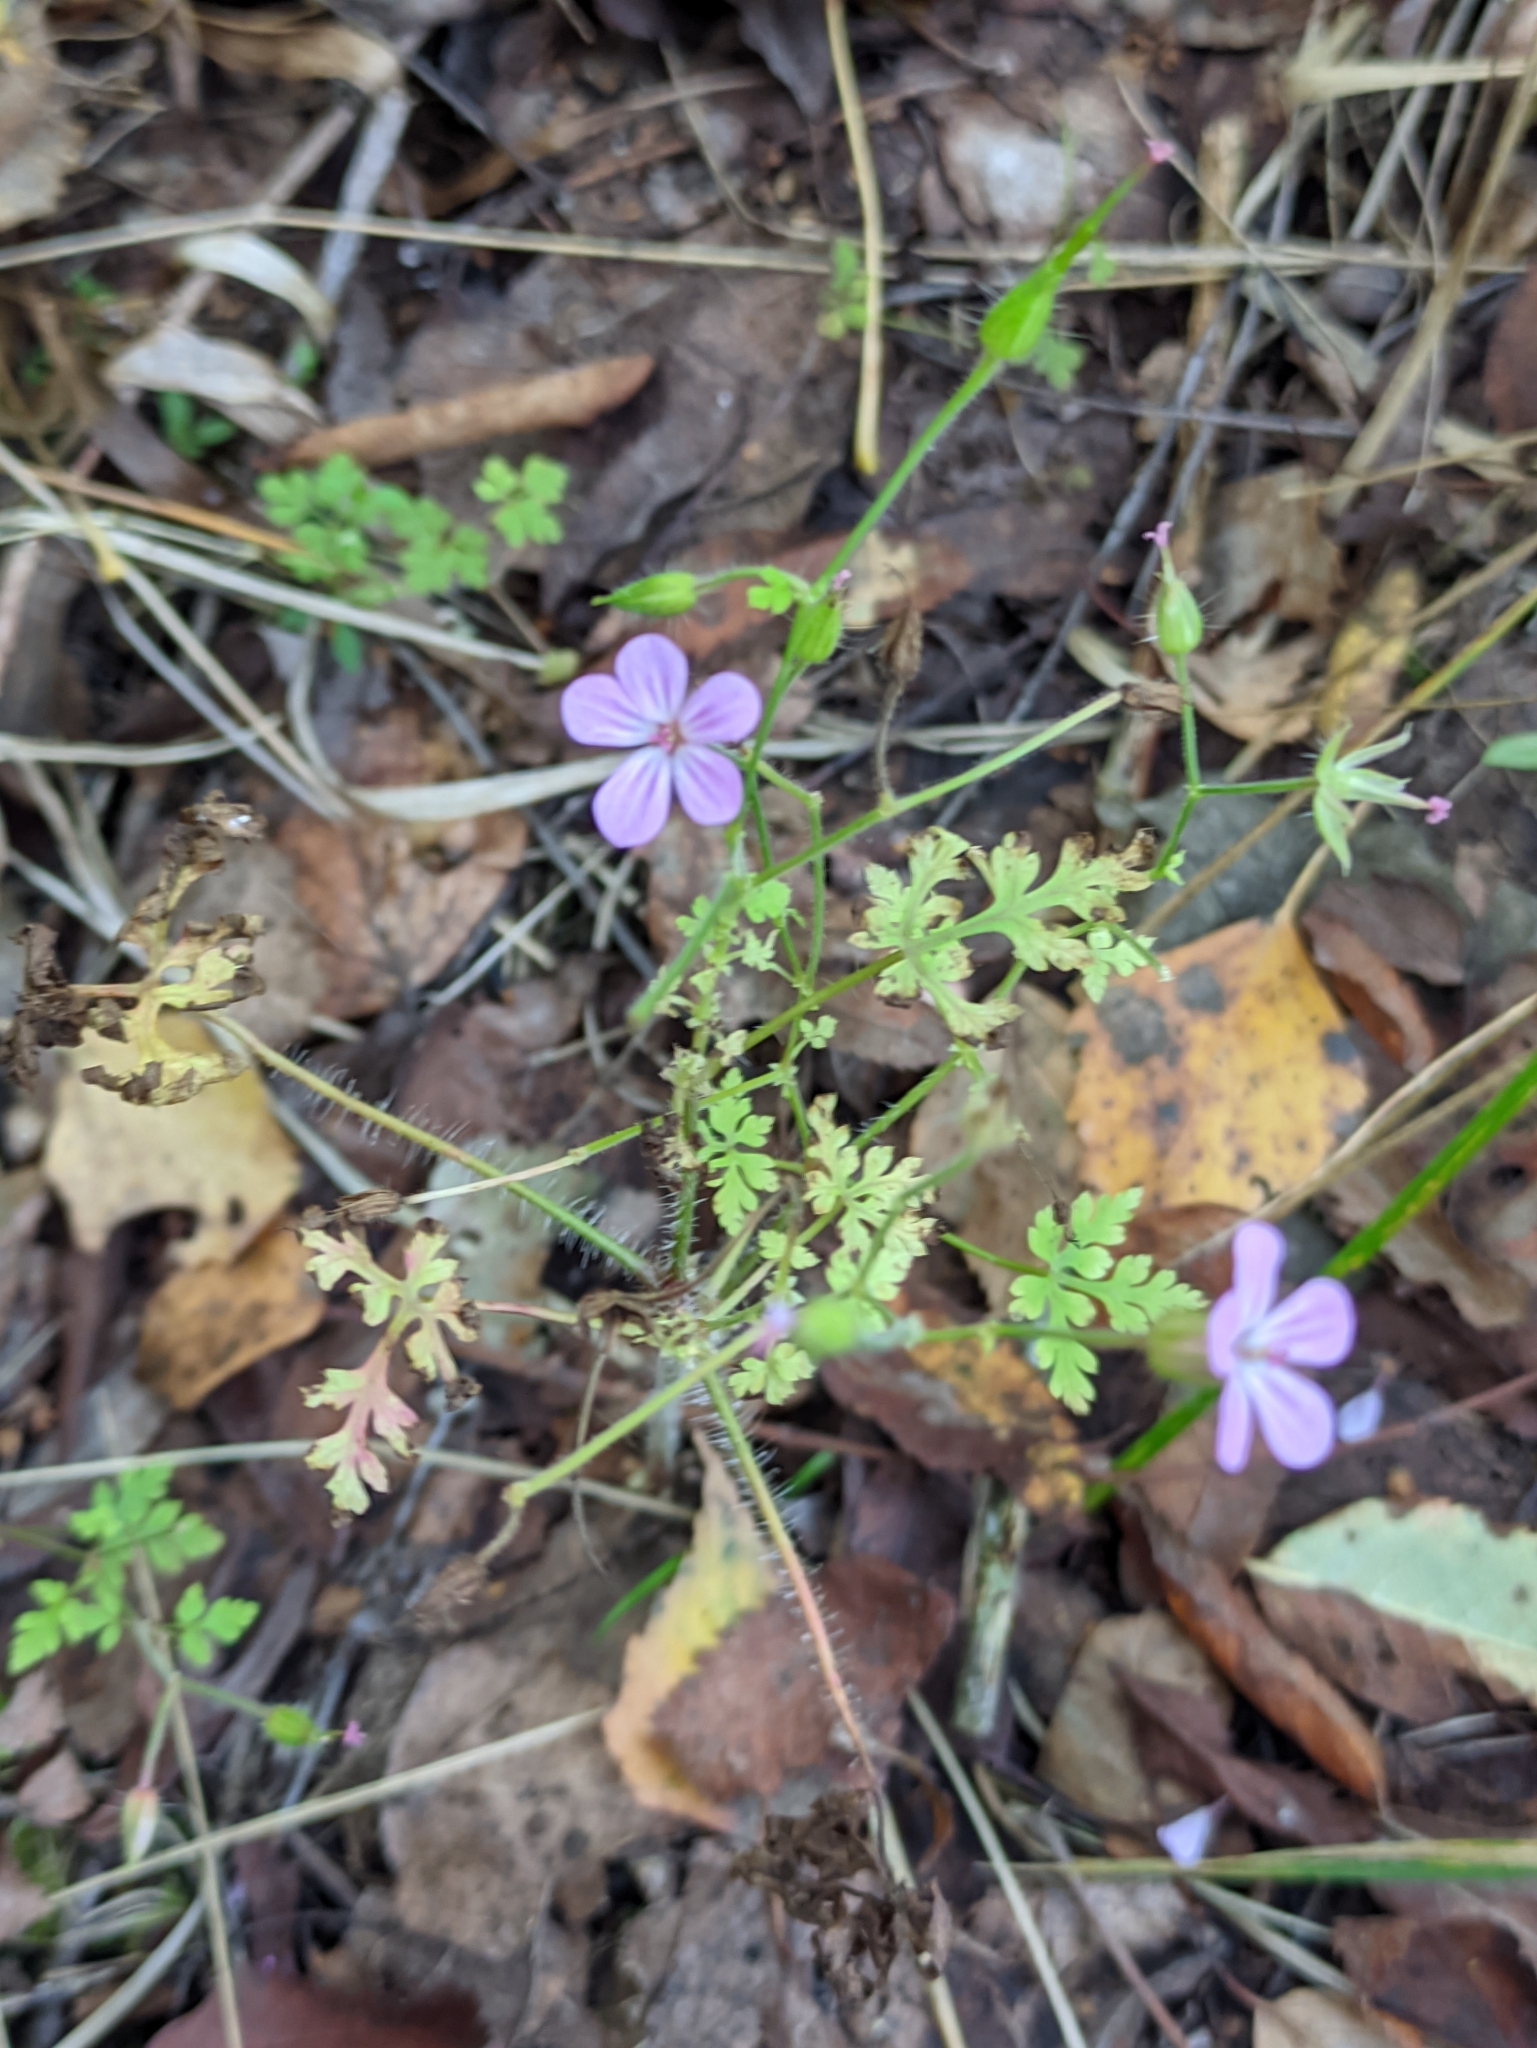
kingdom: Plantae
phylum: Tracheophyta
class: Magnoliopsida
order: Geraniales
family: Geraniaceae
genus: Geranium
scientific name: Geranium robertianum
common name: Herb-robert
